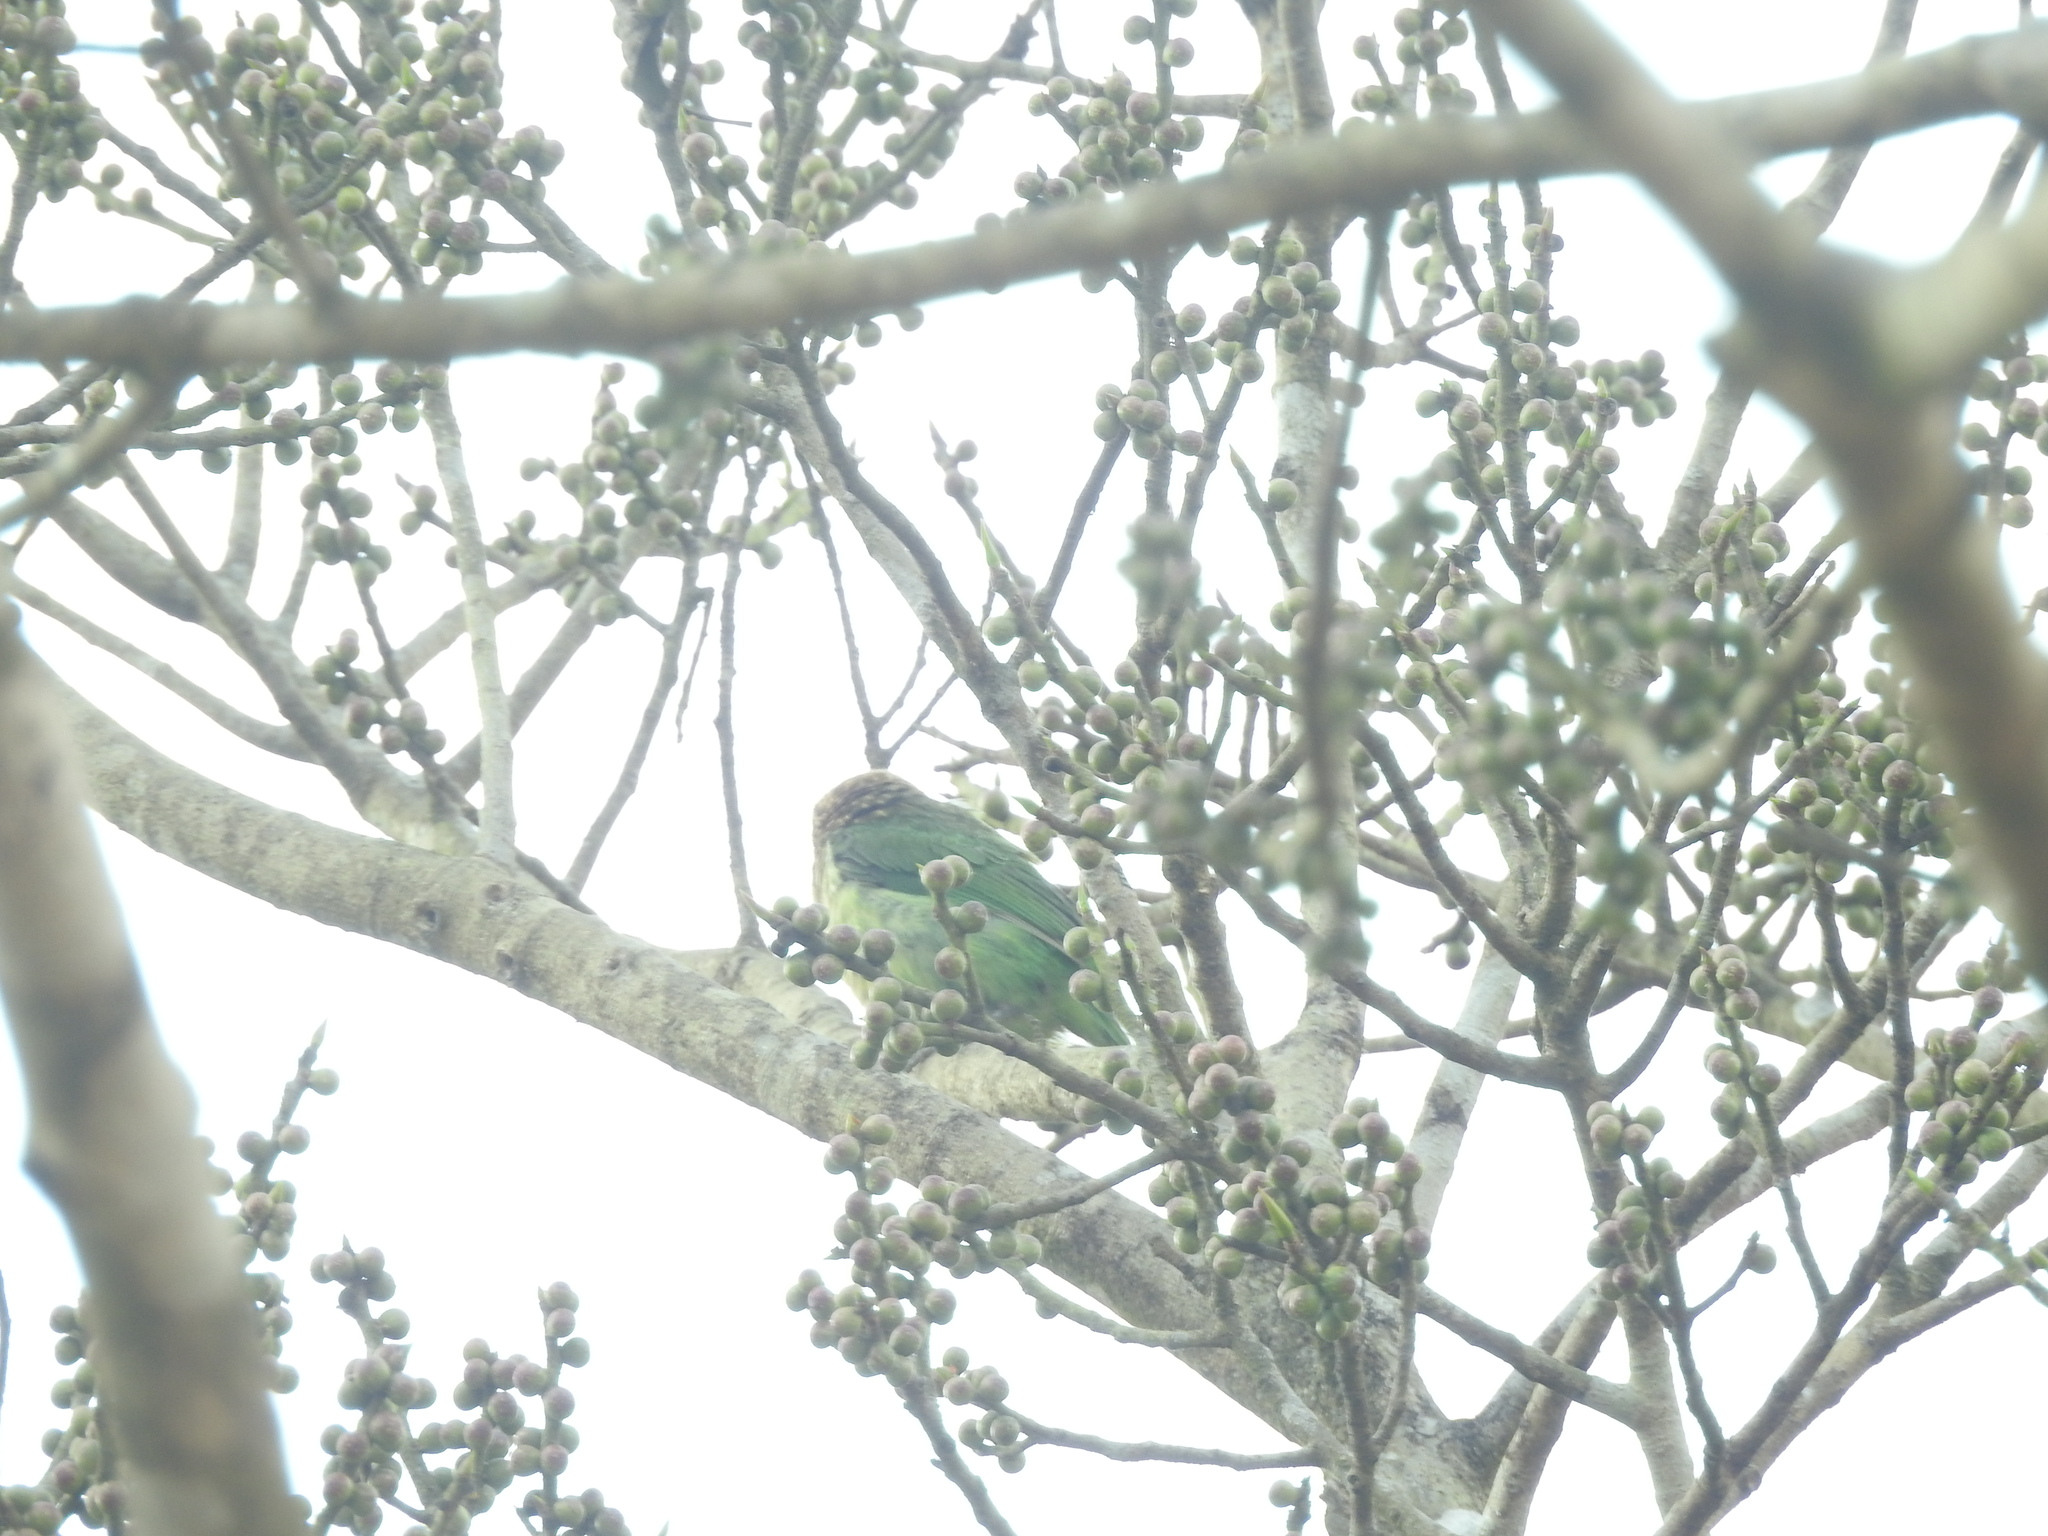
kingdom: Animalia
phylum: Chordata
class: Aves
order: Piciformes
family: Megalaimidae
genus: Psilopogon
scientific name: Psilopogon viridis
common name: White-cheeked barbet
